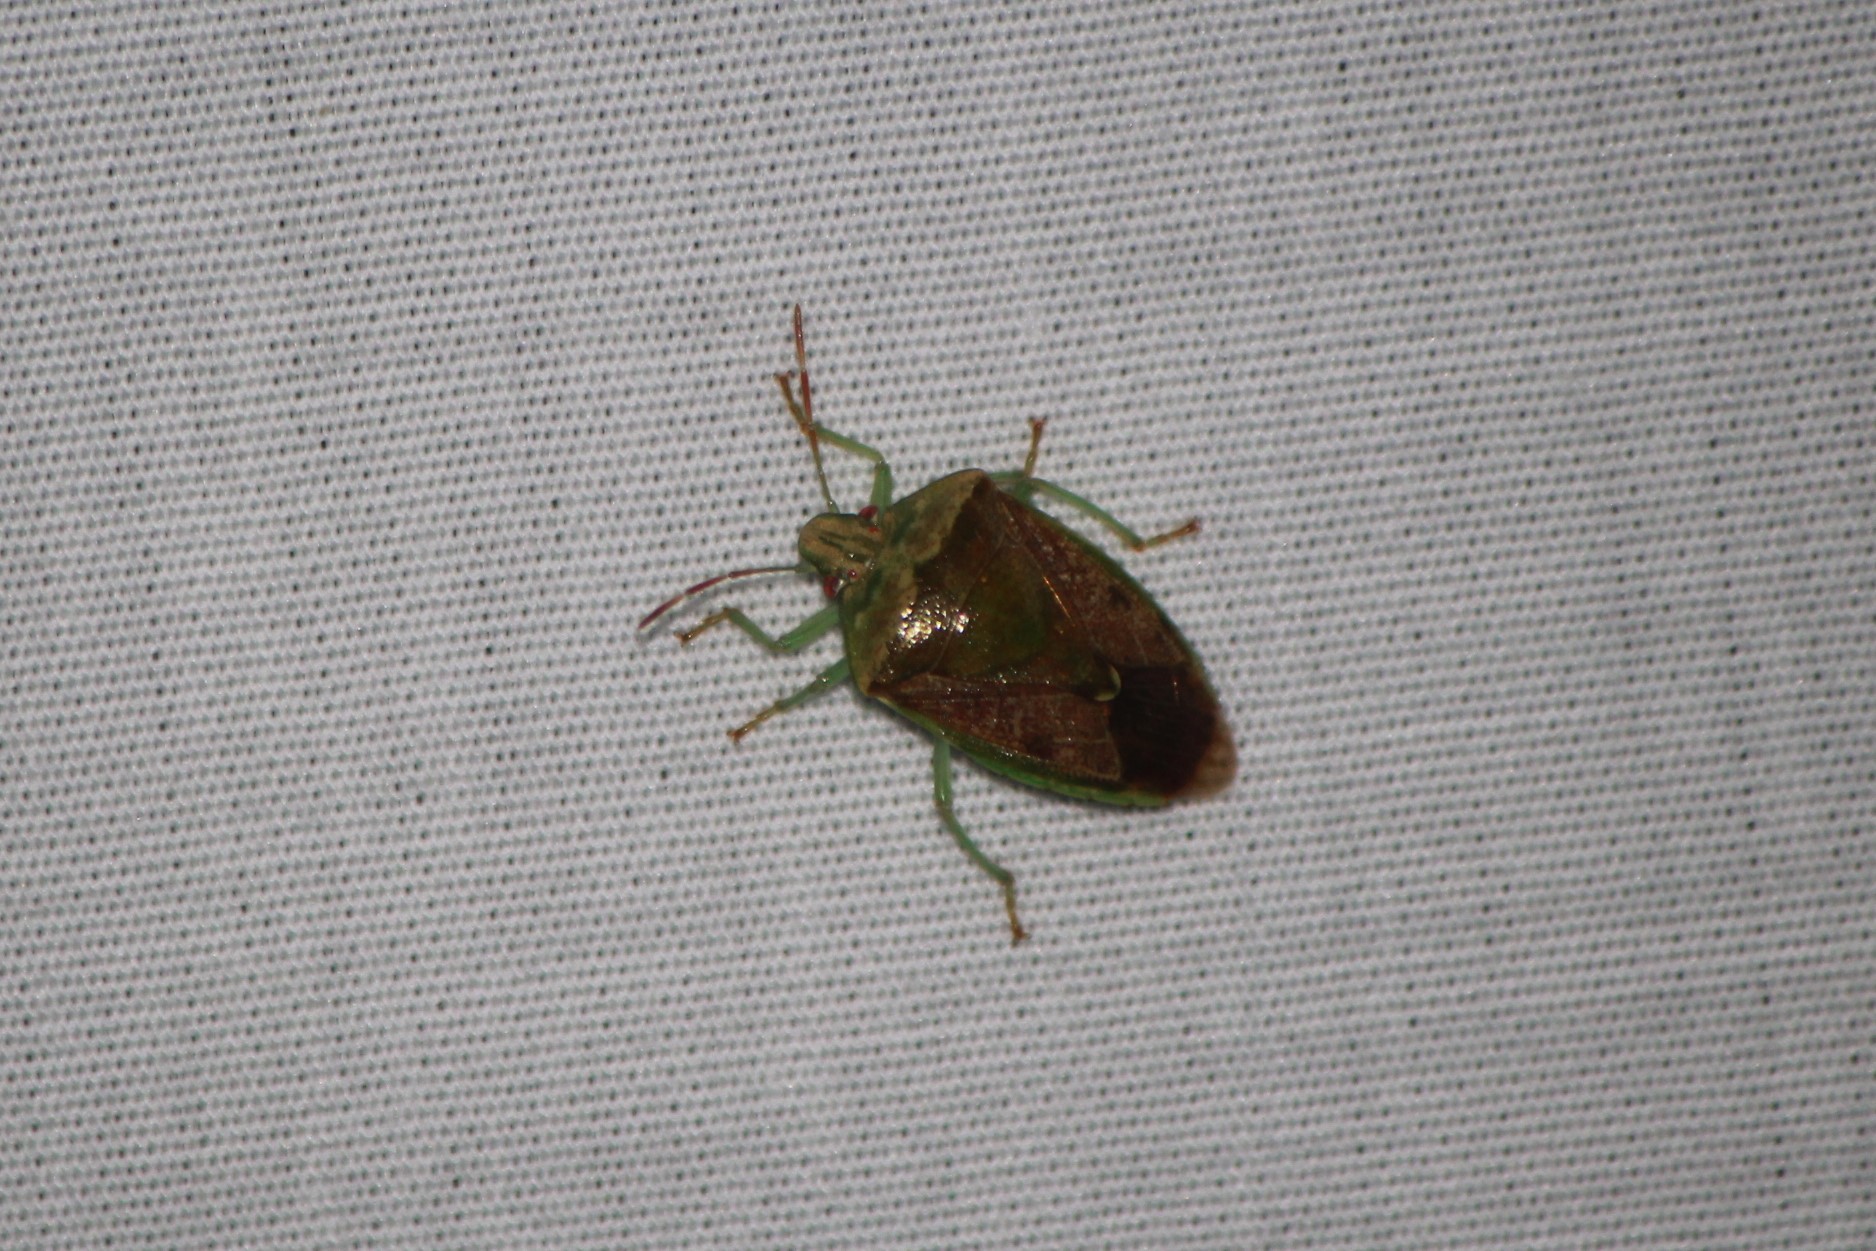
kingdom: Animalia
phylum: Arthropoda
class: Insecta
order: Hemiptera
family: Pentatomidae
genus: Banasa
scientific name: Banasa calva
